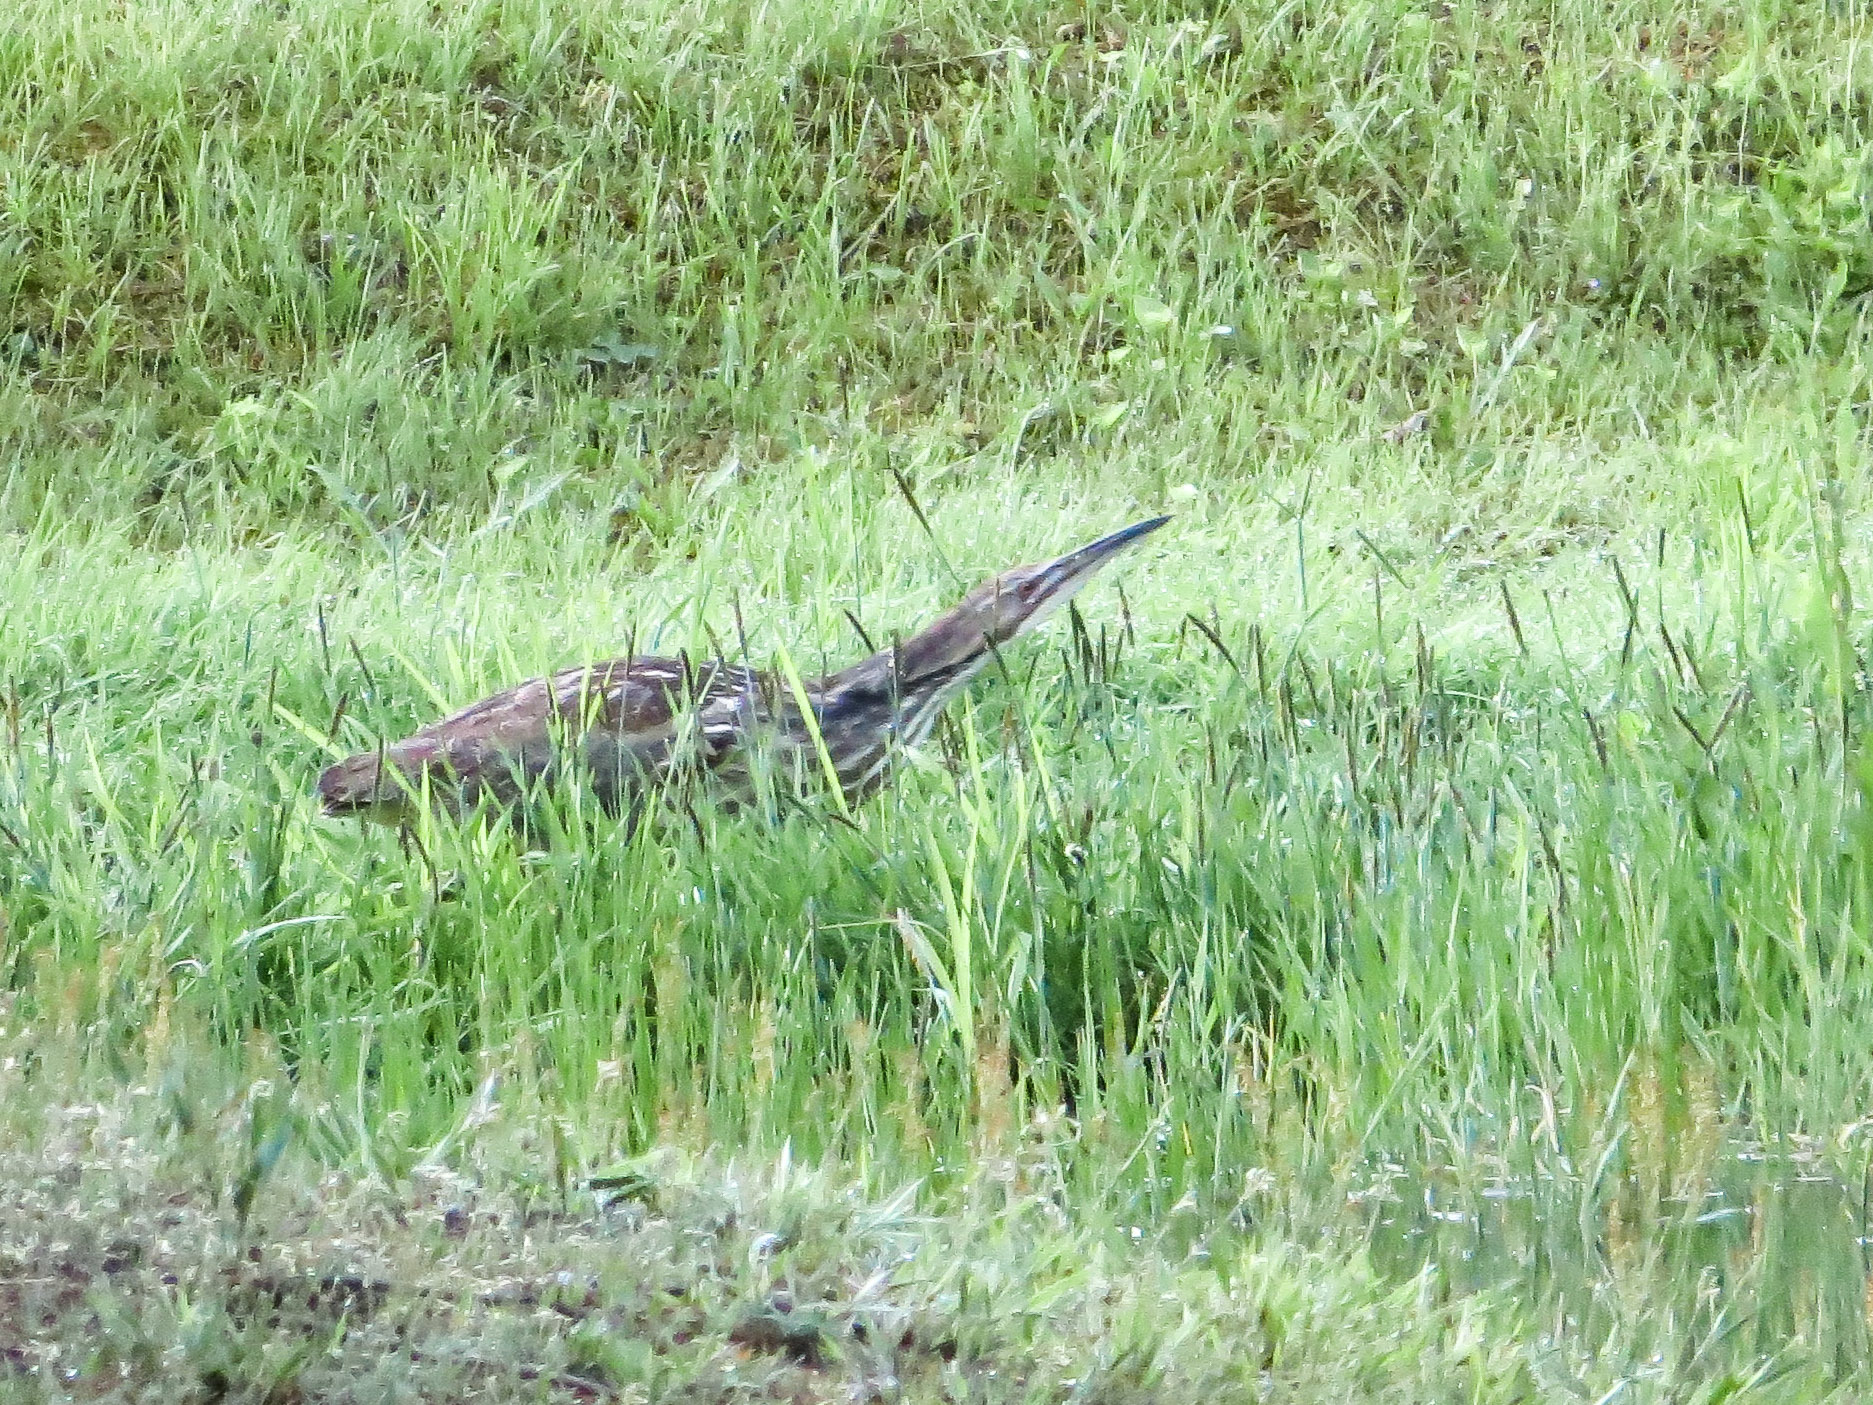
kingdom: Animalia
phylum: Chordata
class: Aves
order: Pelecaniformes
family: Ardeidae
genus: Botaurus
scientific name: Botaurus lentiginosus
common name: American bittern
